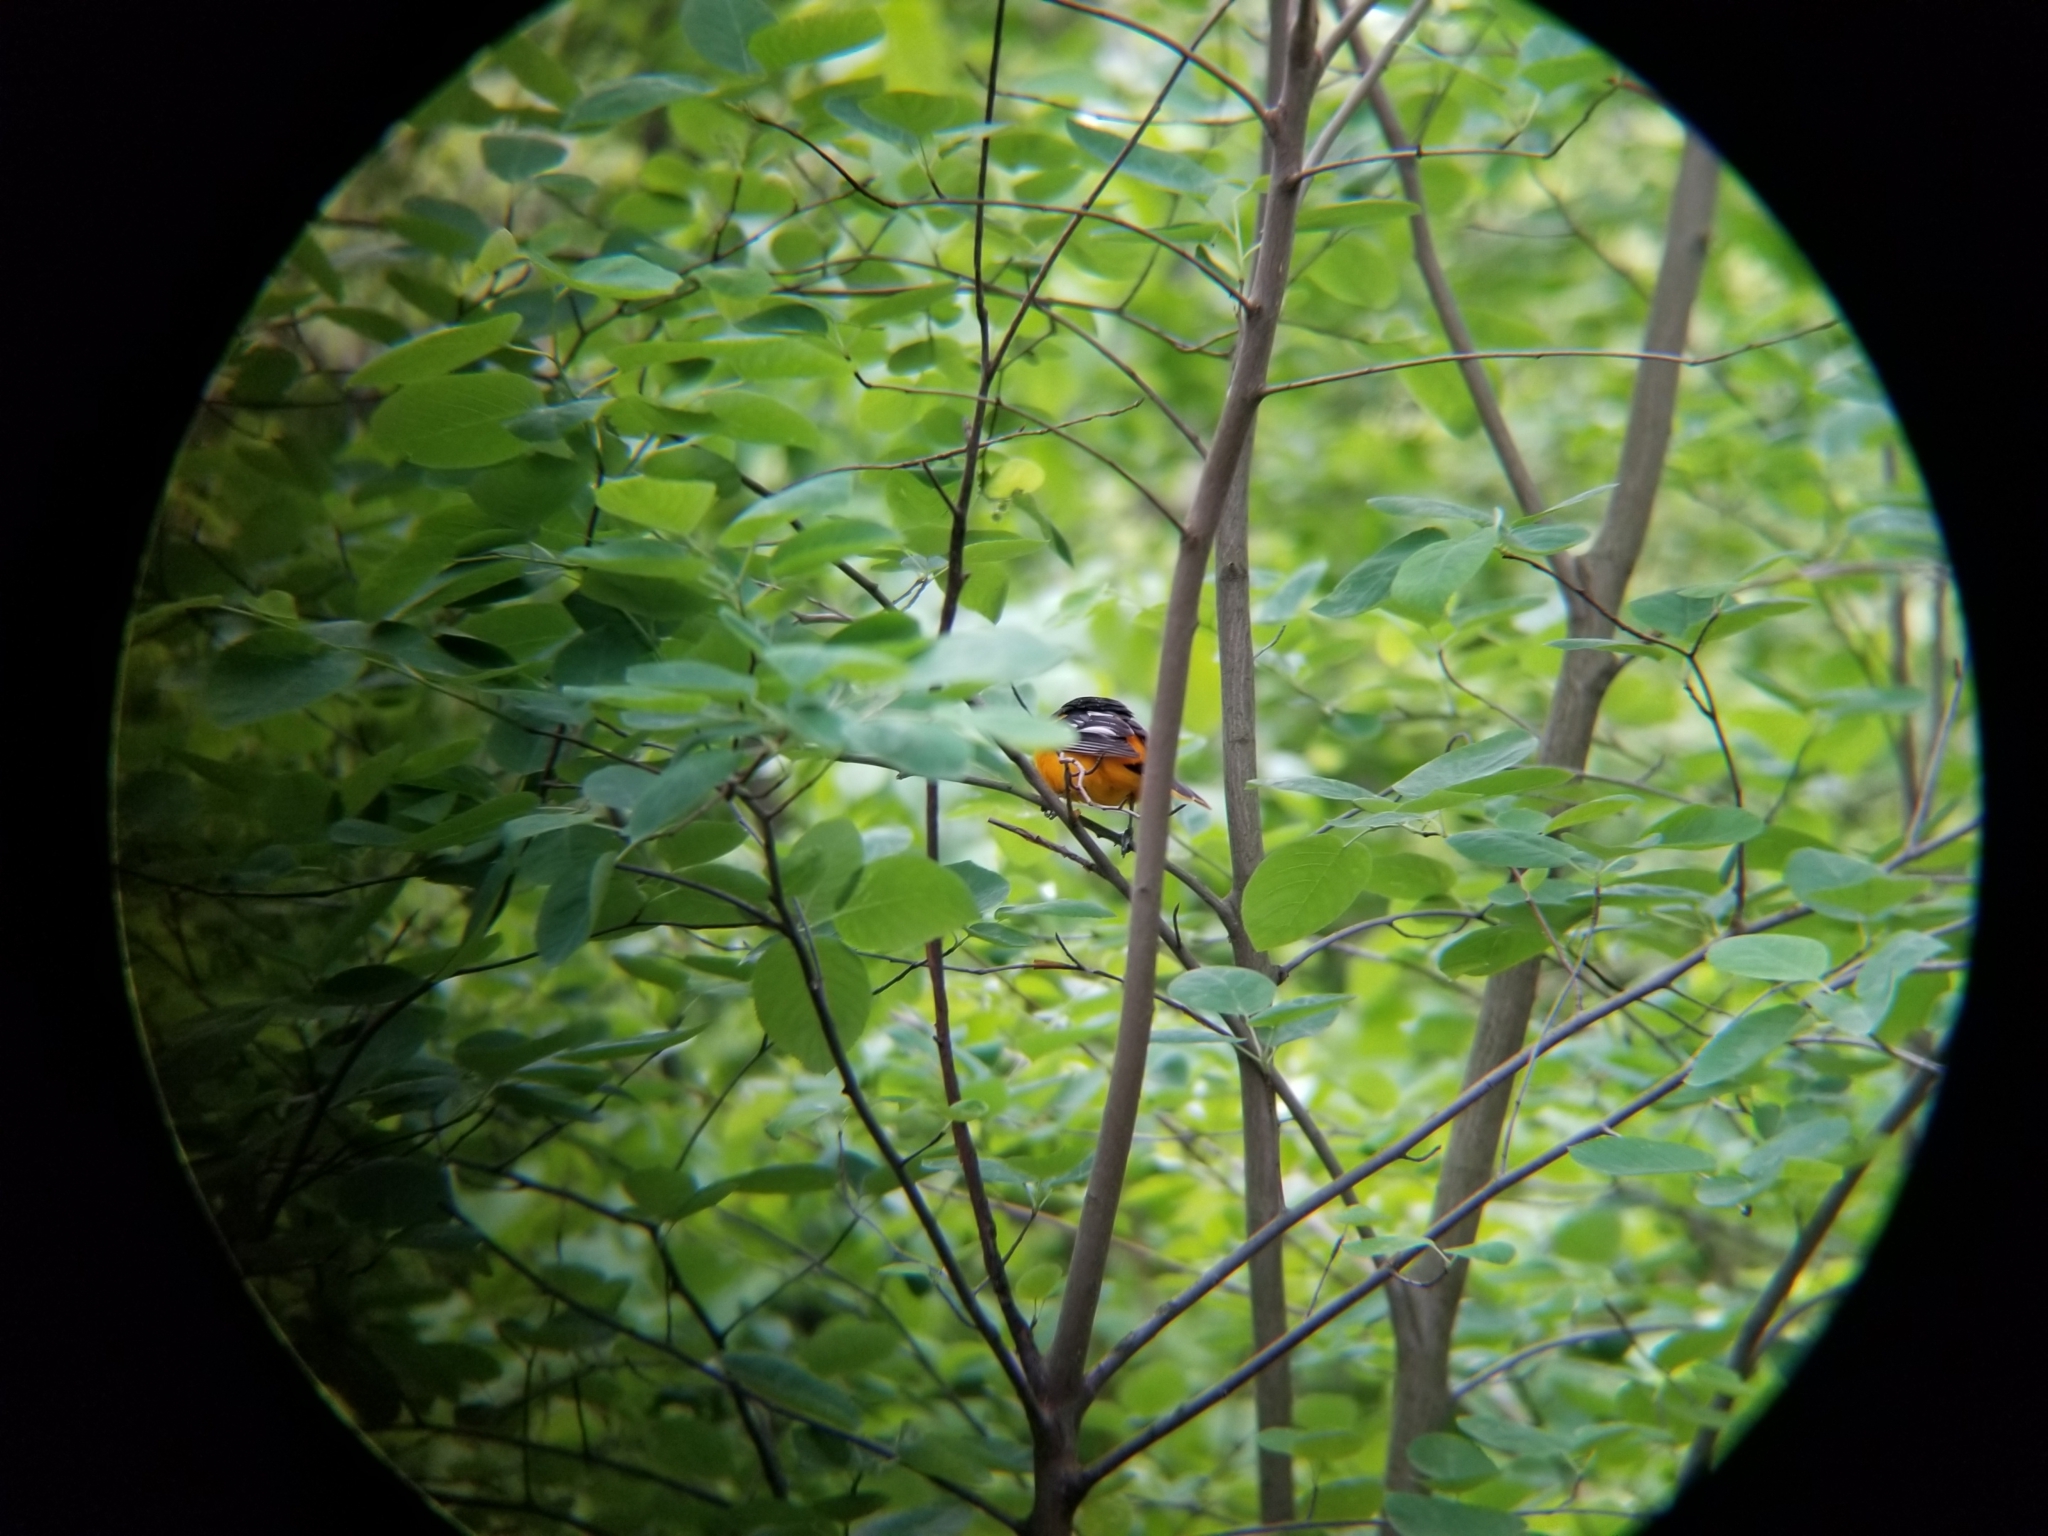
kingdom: Animalia
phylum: Chordata
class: Aves
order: Passeriformes
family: Icteridae
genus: Icterus
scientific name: Icterus galbula
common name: Baltimore oriole
